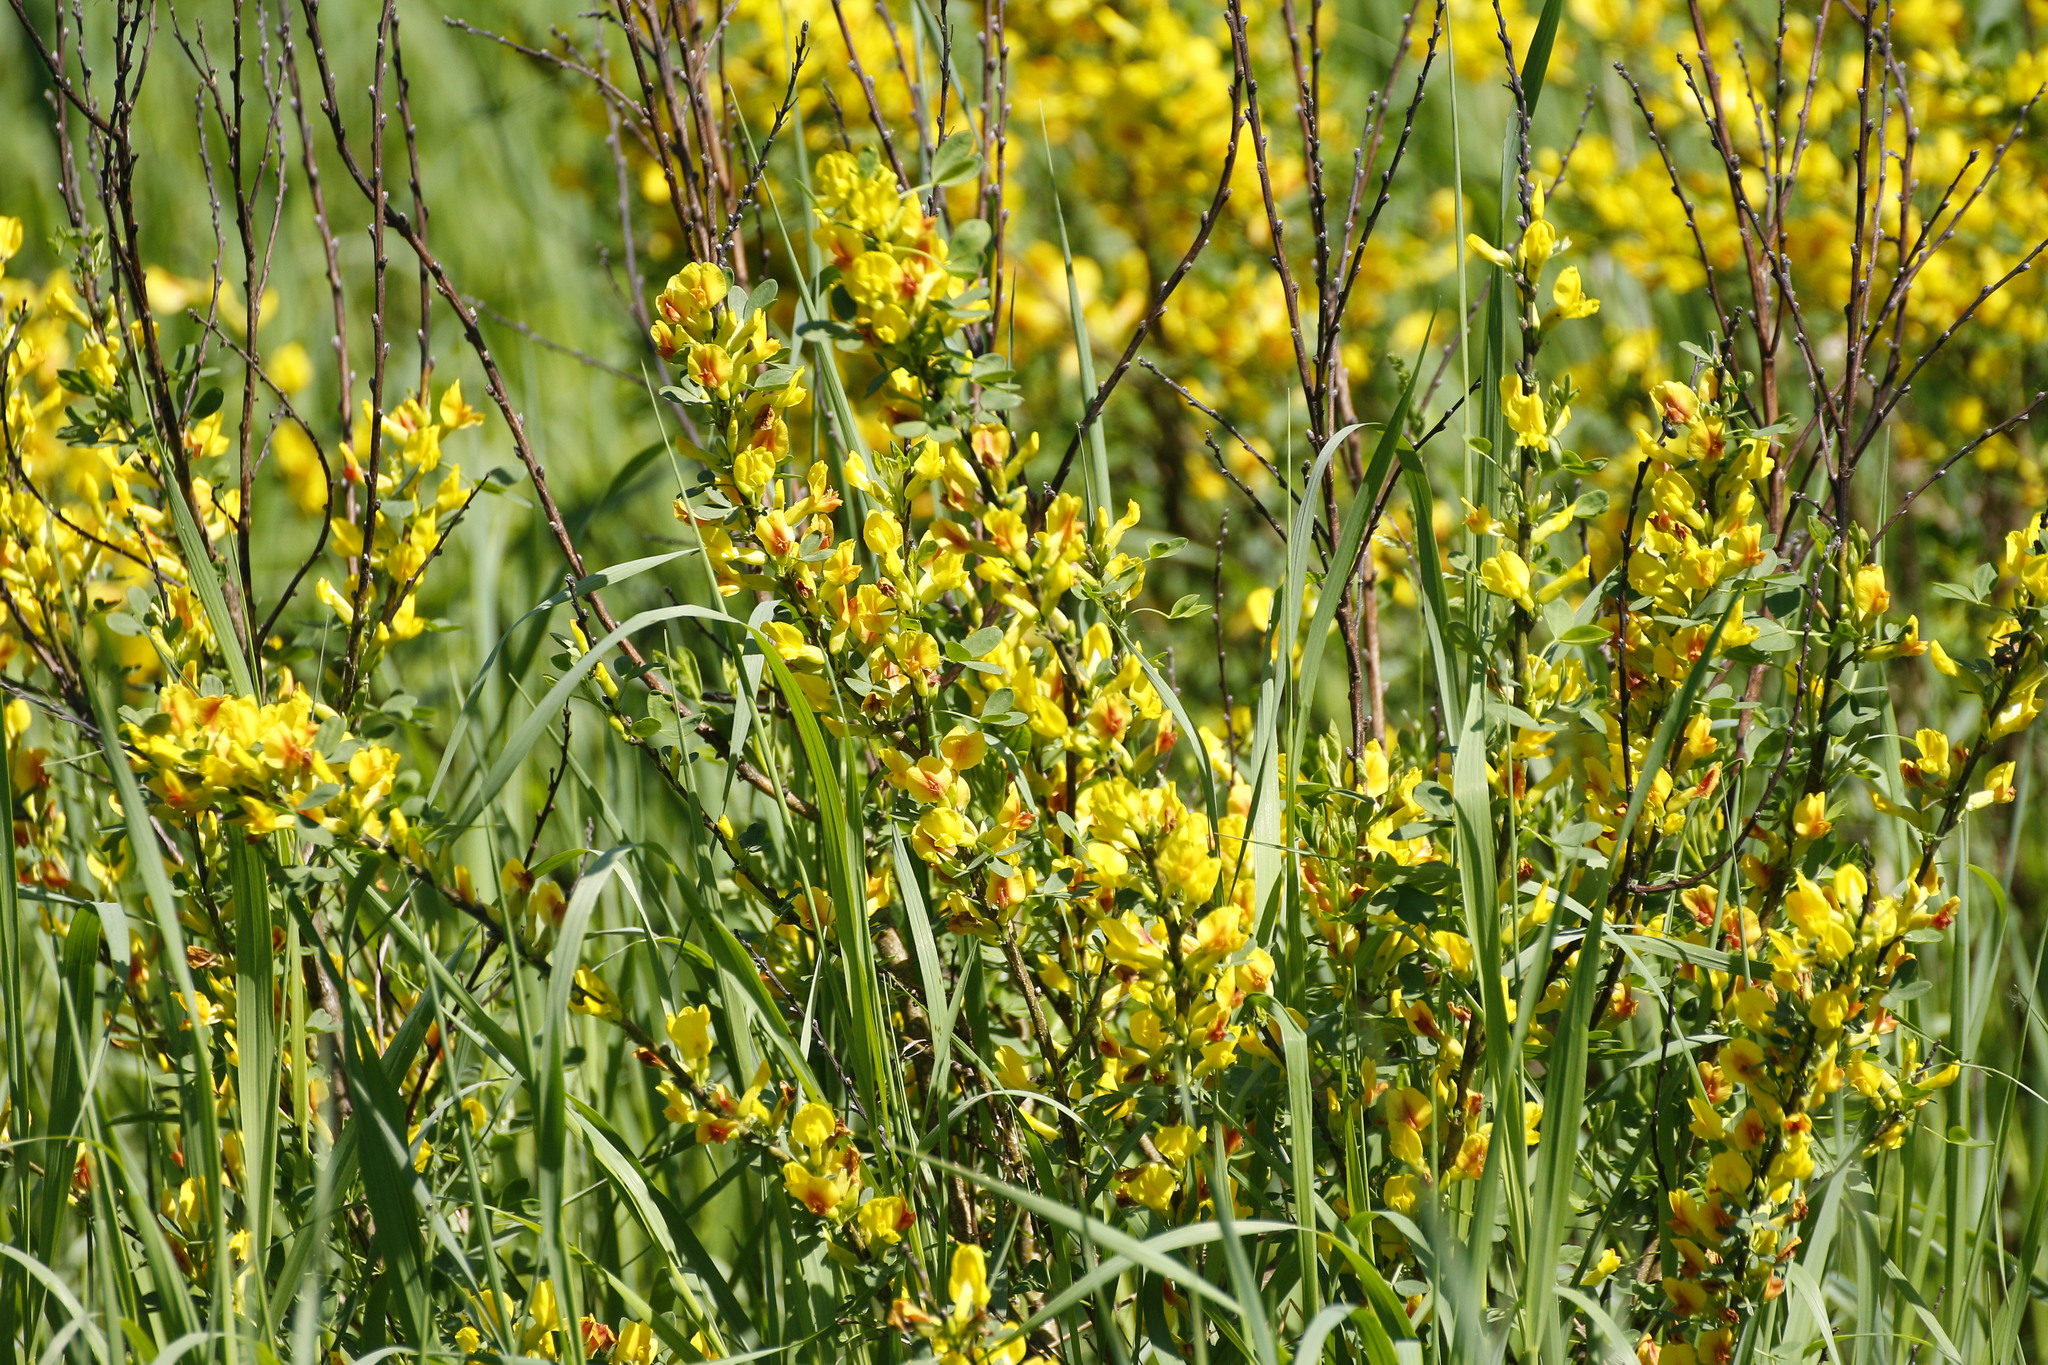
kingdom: Plantae
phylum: Tracheophyta
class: Magnoliopsida
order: Fabales
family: Fabaceae
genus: Chamaecytisus
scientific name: Chamaecytisus ruthenicus
